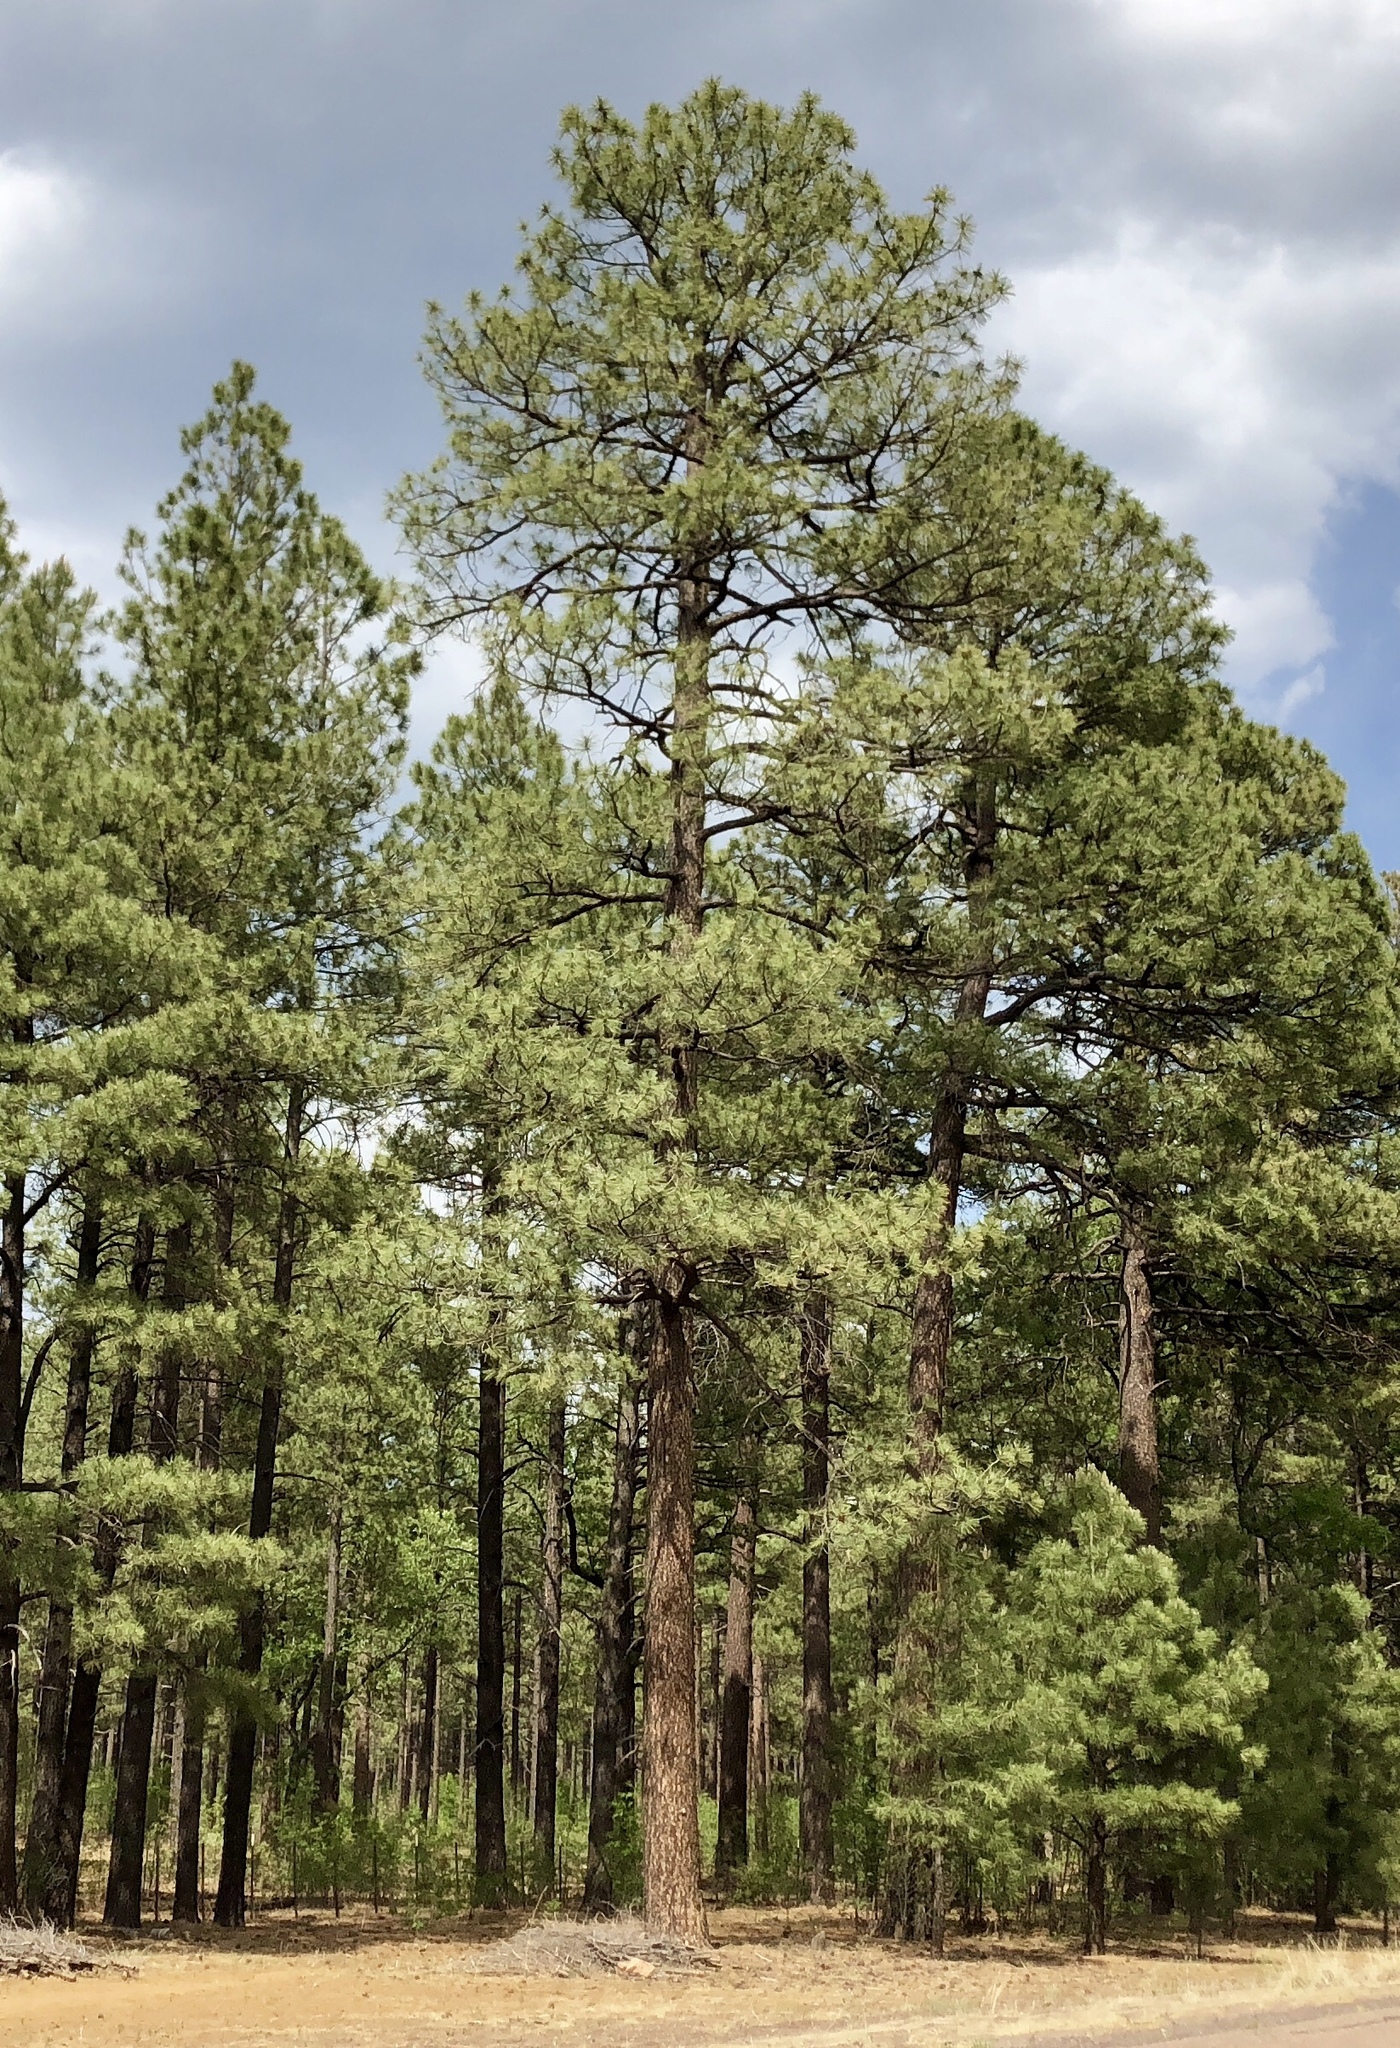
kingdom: Plantae
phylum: Tracheophyta
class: Pinopsida
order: Pinales
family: Pinaceae
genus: Pinus
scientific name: Pinus ponderosa
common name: Western yellow-pine
